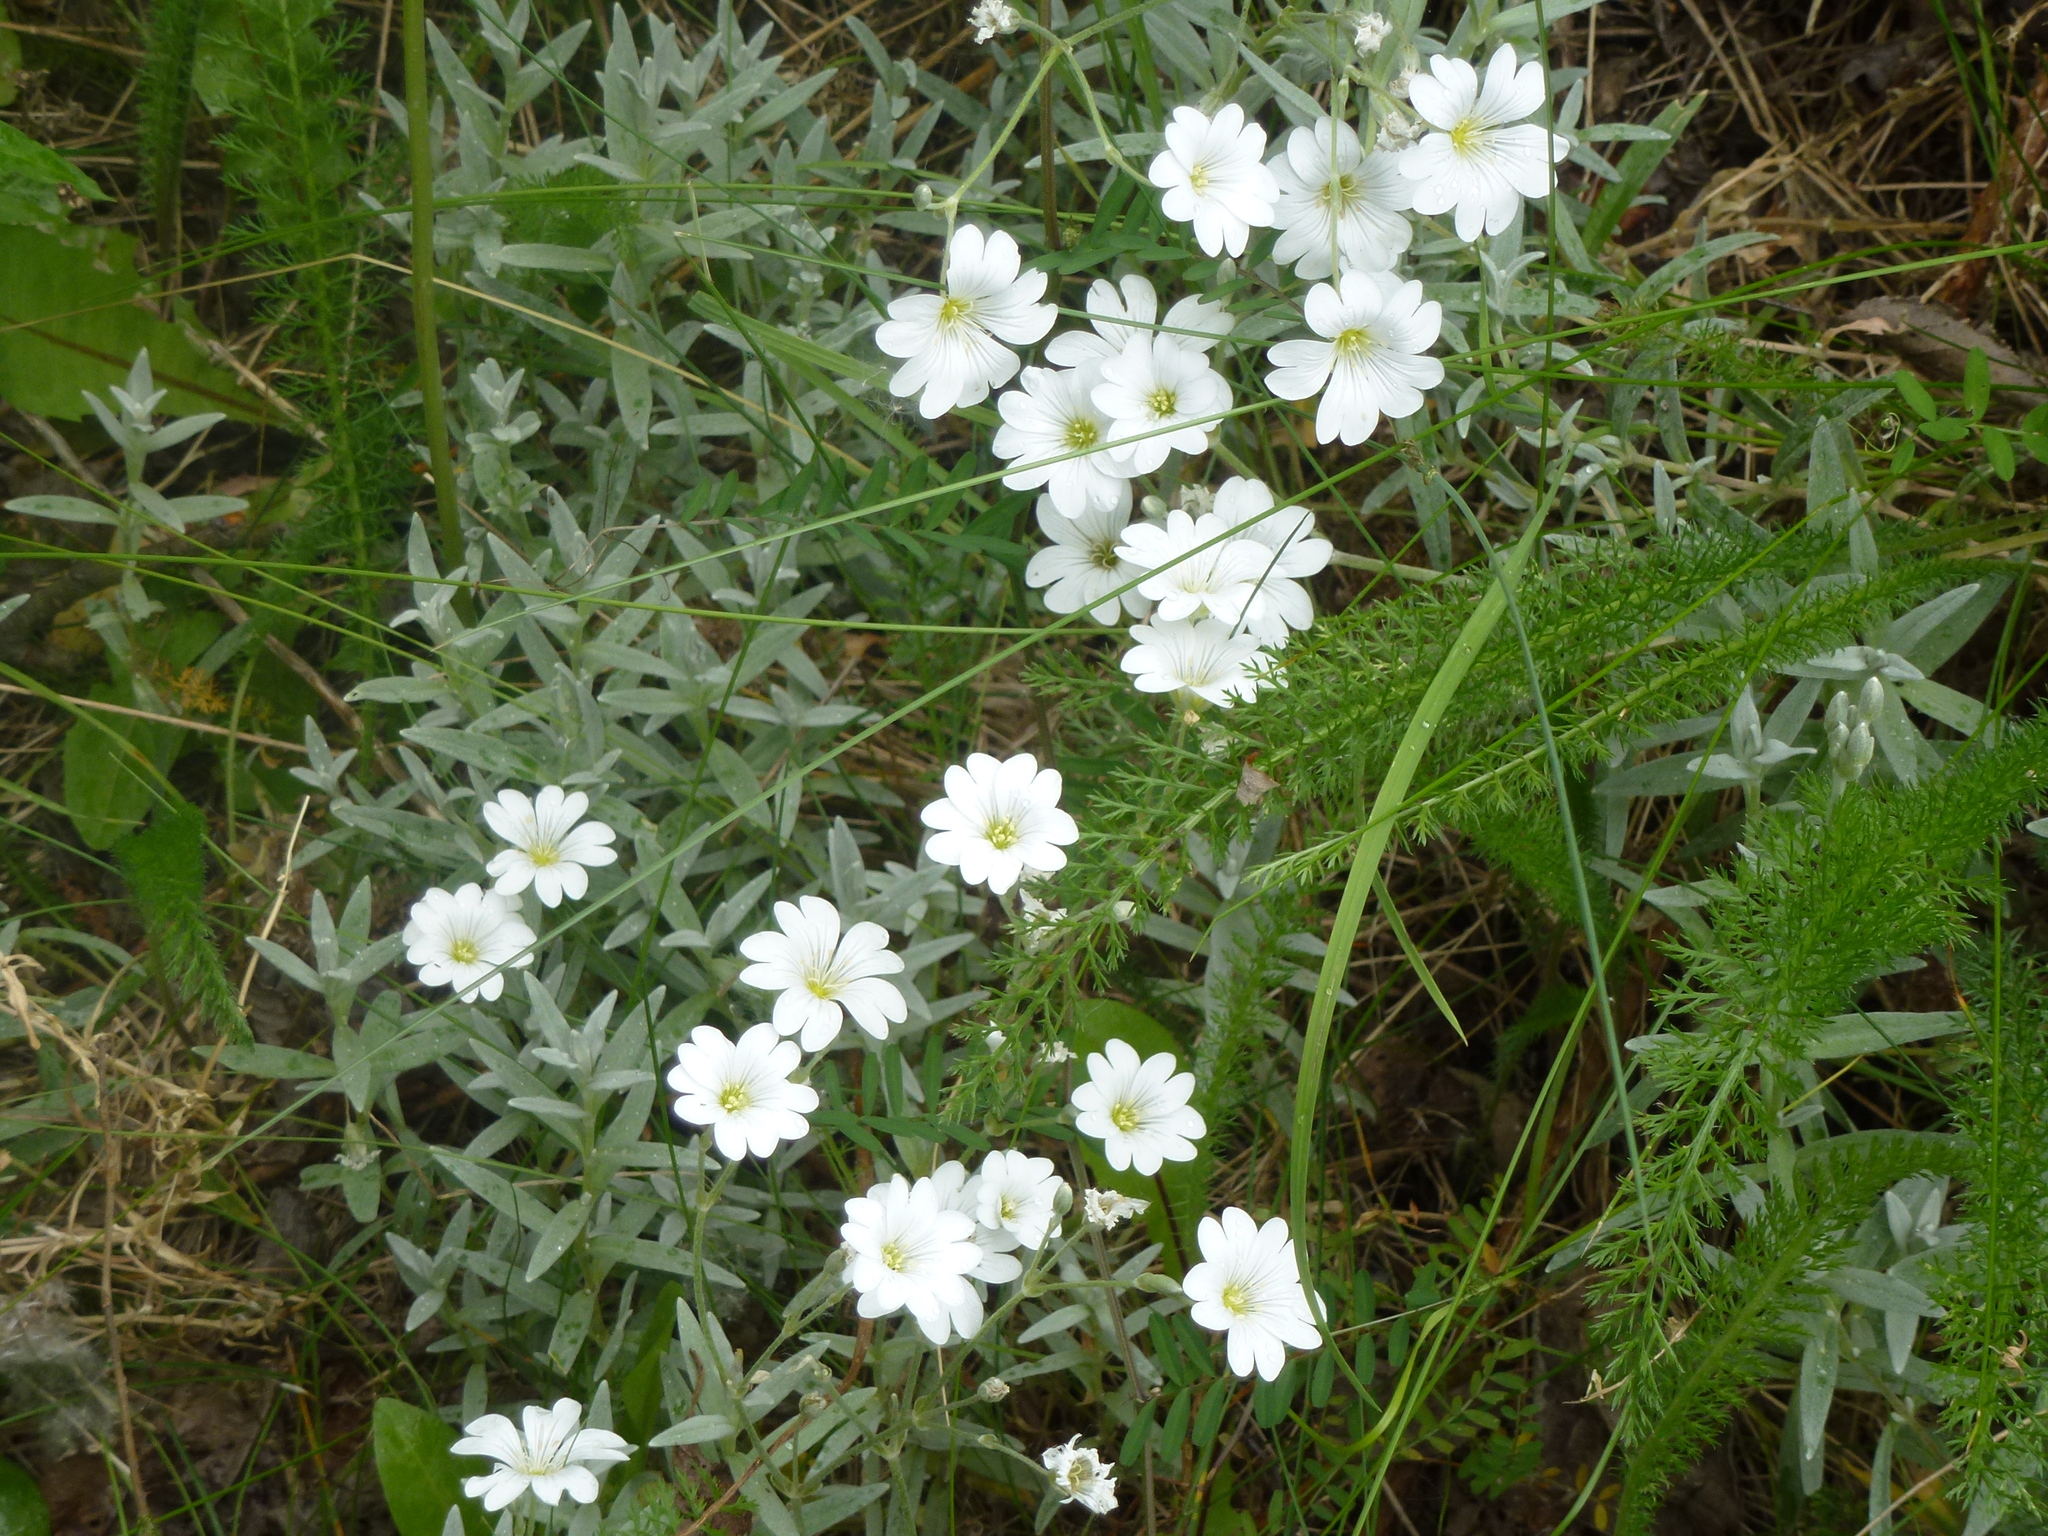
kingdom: Plantae
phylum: Tracheophyta
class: Magnoliopsida
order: Caryophyllales
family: Caryophyllaceae
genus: Cerastium
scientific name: Cerastium tomentosum
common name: Snow-in-summer
